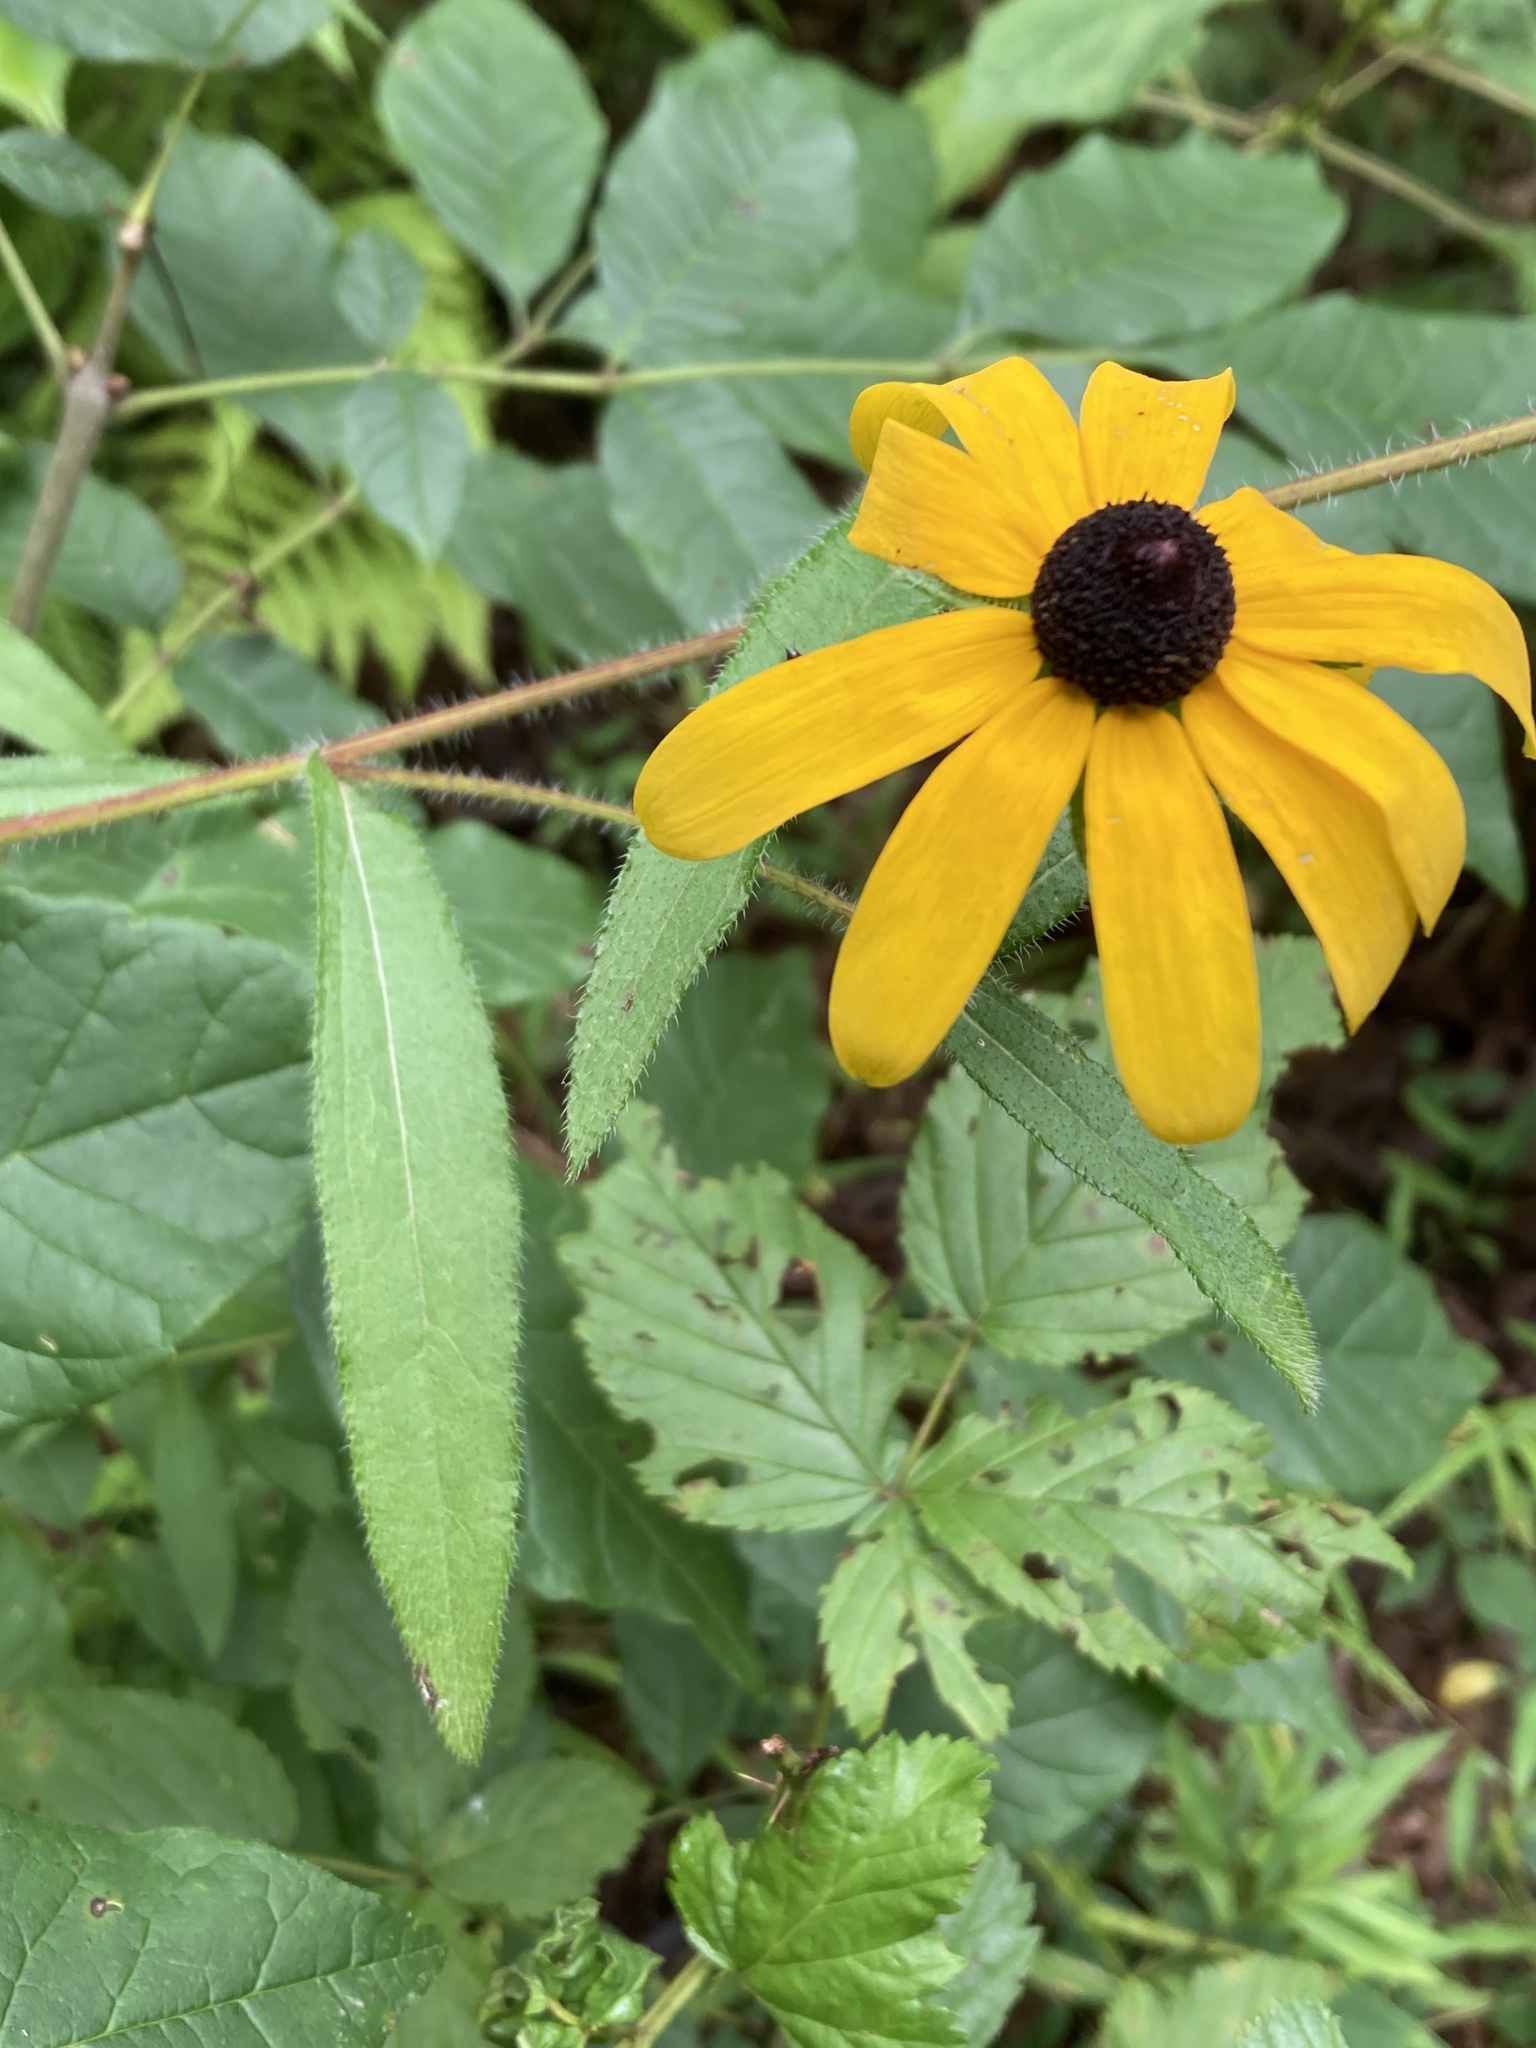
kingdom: Plantae
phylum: Tracheophyta
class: Magnoliopsida
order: Asterales
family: Asteraceae
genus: Rudbeckia
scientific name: Rudbeckia hirta
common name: Black-eyed-susan
